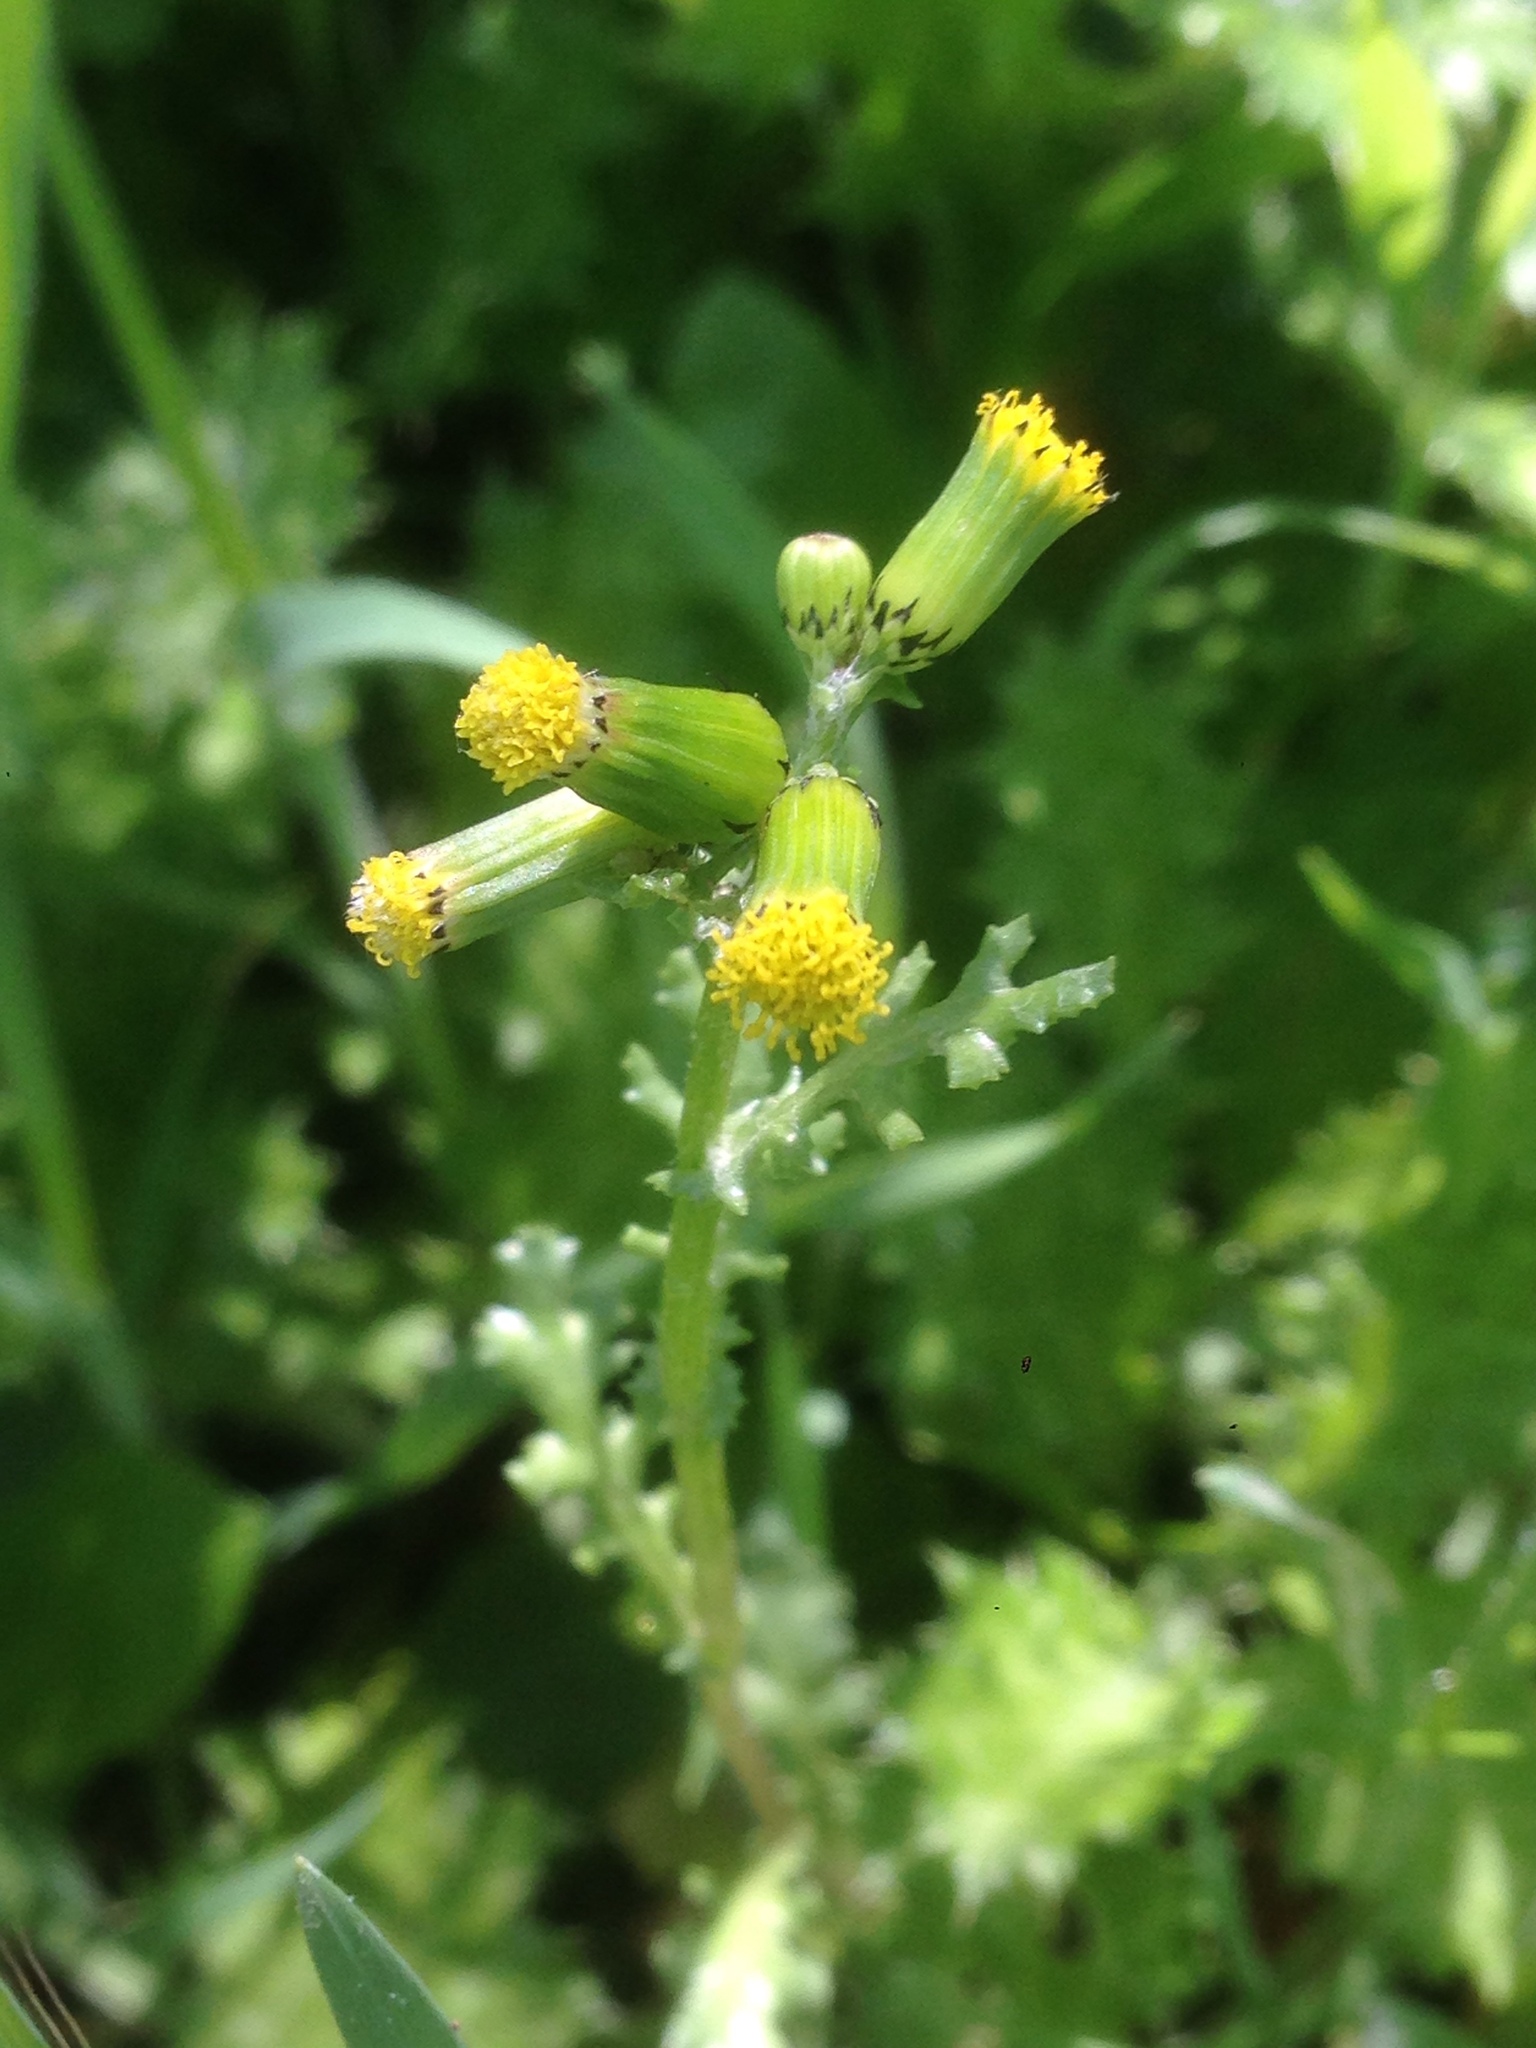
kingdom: Plantae
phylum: Tracheophyta
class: Magnoliopsida
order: Asterales
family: Asteraceae
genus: Senecio
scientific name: Senecio vulgaris
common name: Old-man-in-the-spring
